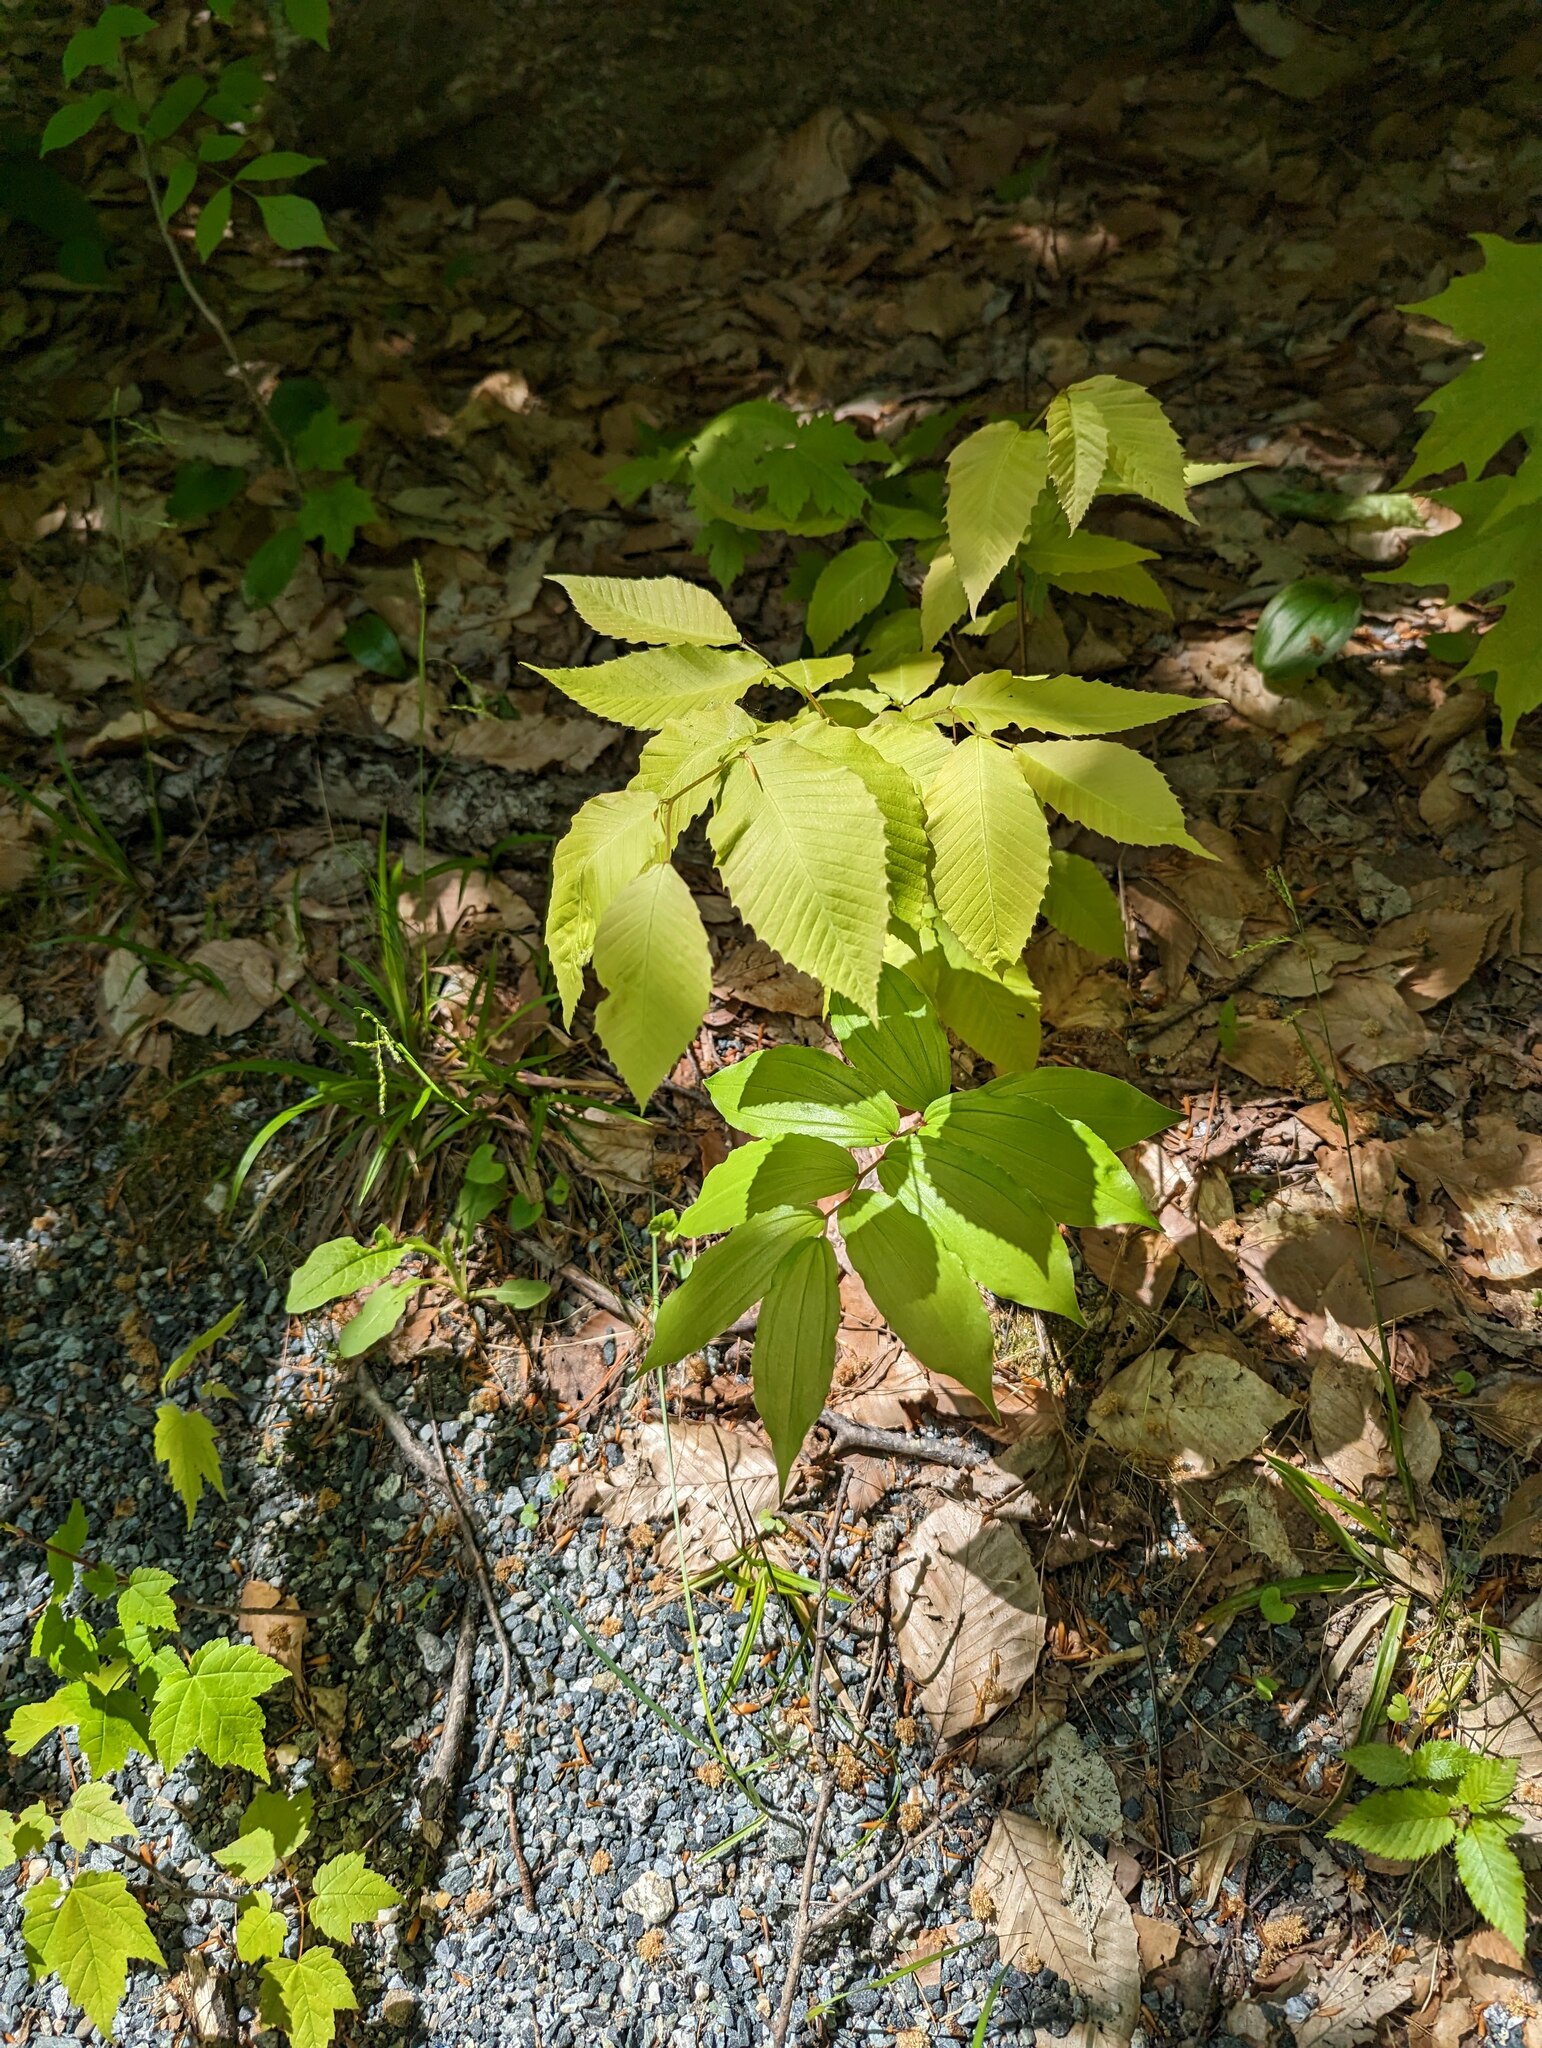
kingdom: Plantae
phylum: Tracheophyta
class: Magnoliopsida
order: Fagales
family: Fagaceae
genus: Fagus
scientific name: Fagus grandifolia
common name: American beech
